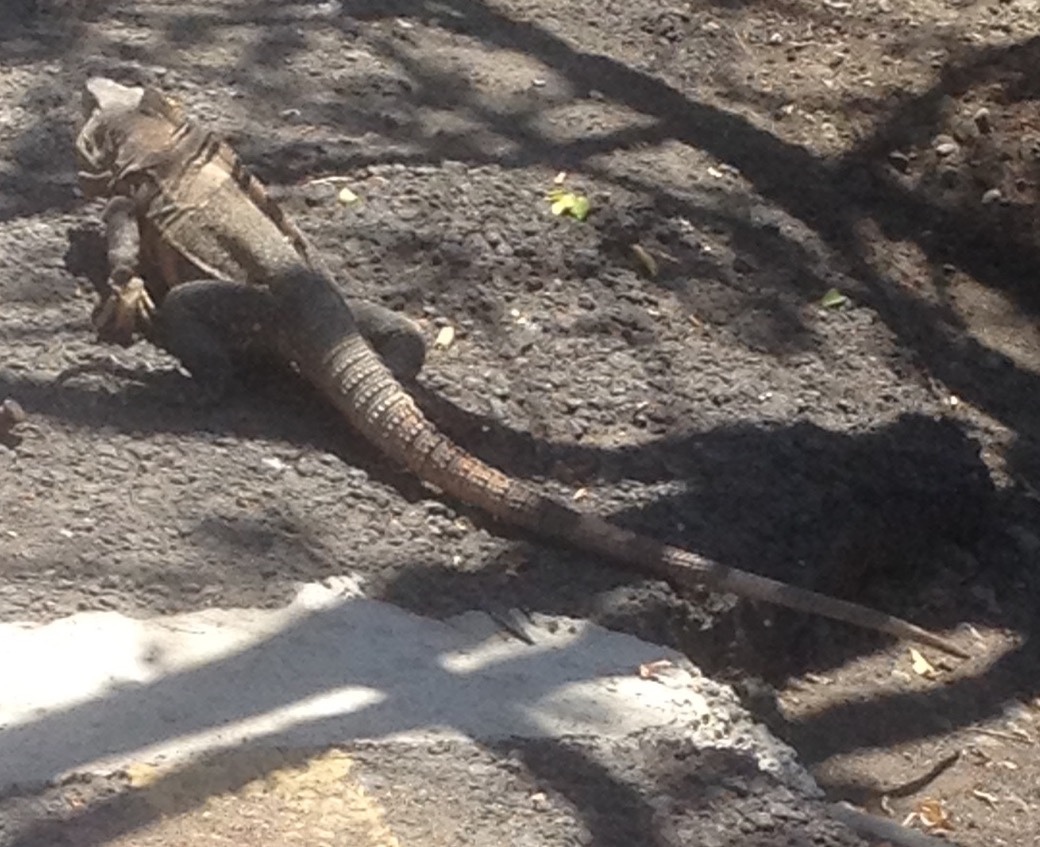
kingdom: Animalia
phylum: Chordata
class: Squamata
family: Iguanidae
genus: Ctenosaura
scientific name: Ctenosaura similis
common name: Black spiny-tailed iguana
